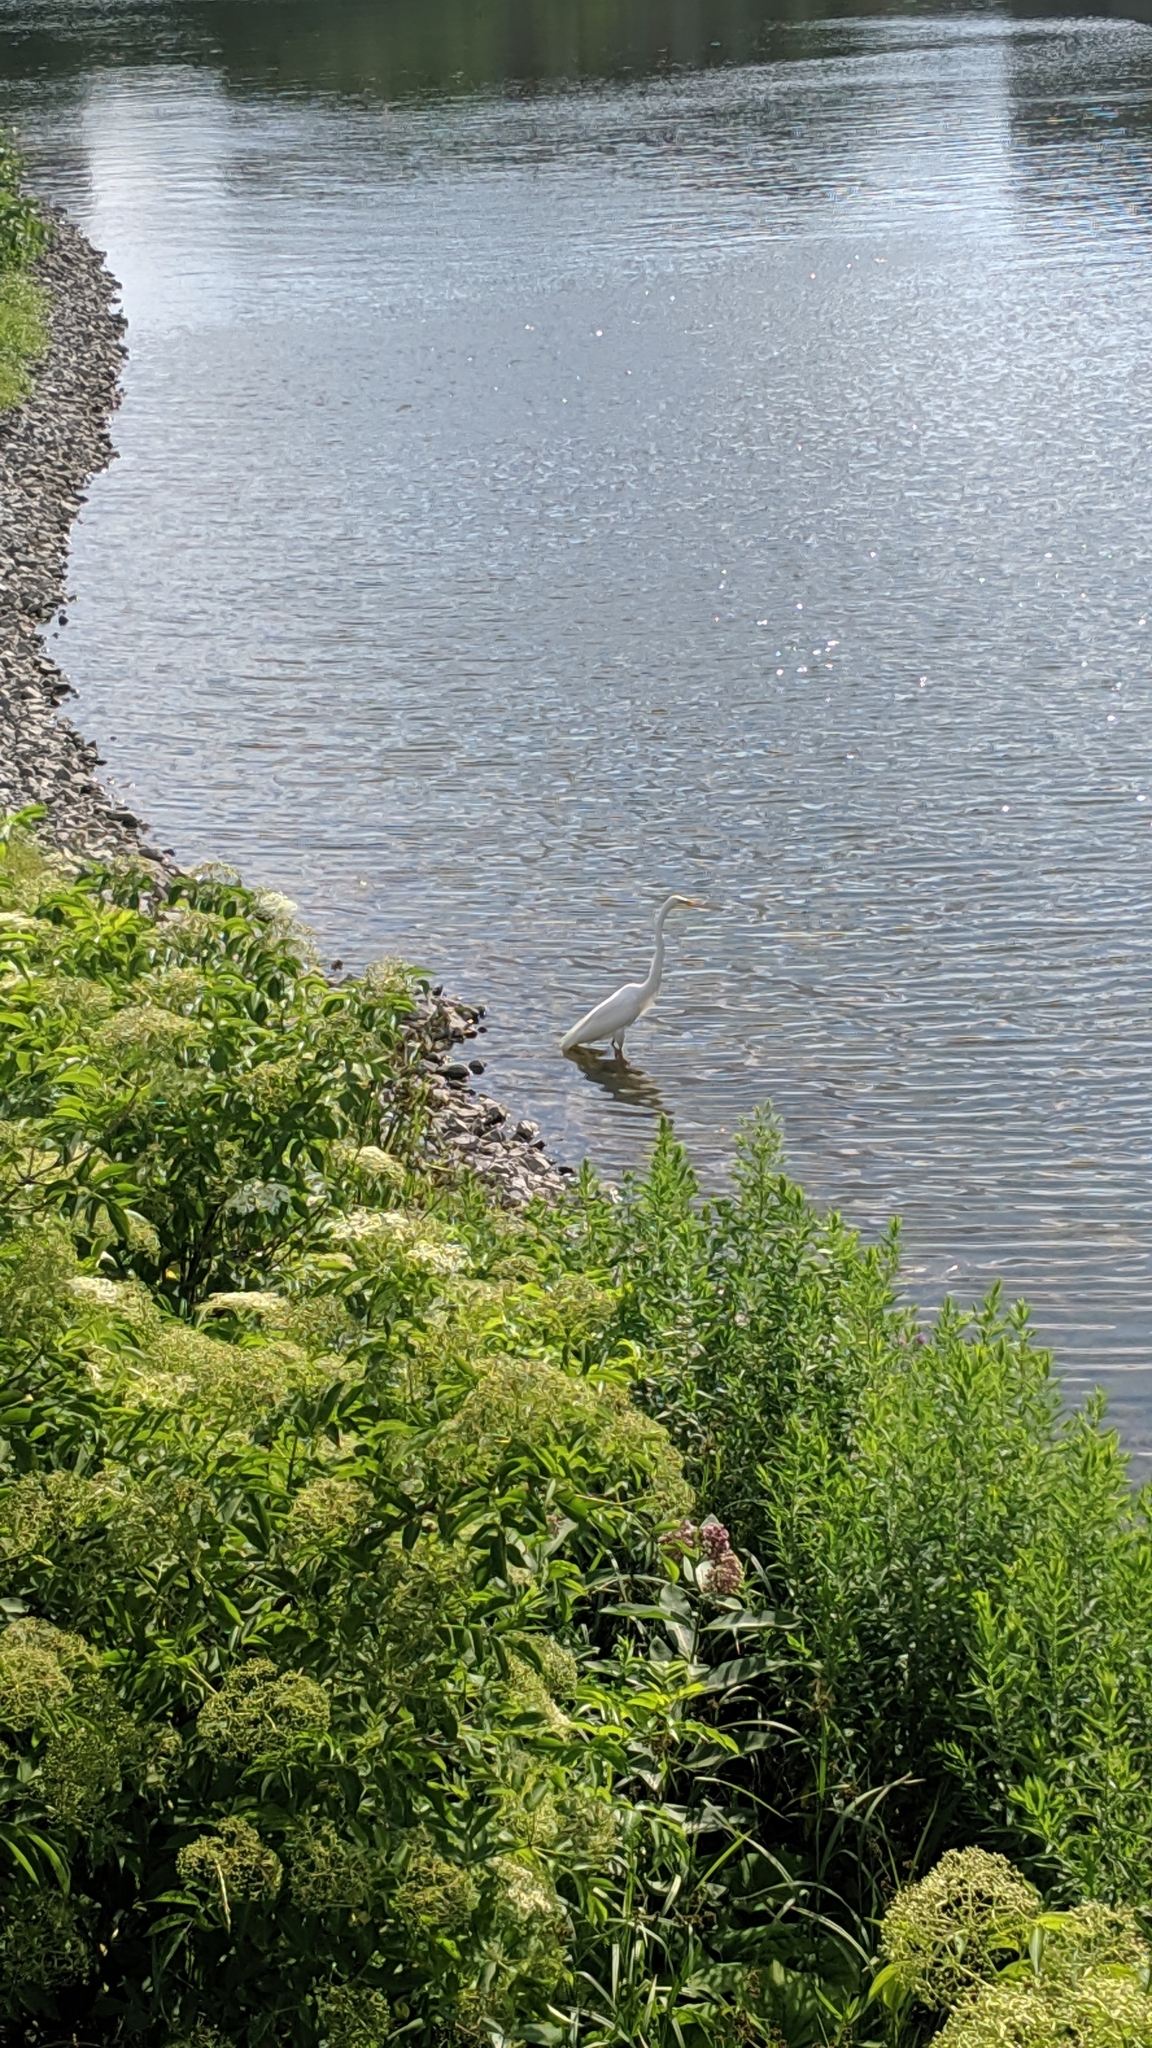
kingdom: Animalia
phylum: Chordata
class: Aves
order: Pelecaniformes
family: Ardeidae
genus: Ardea
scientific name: Ardea alba
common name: Great egret
